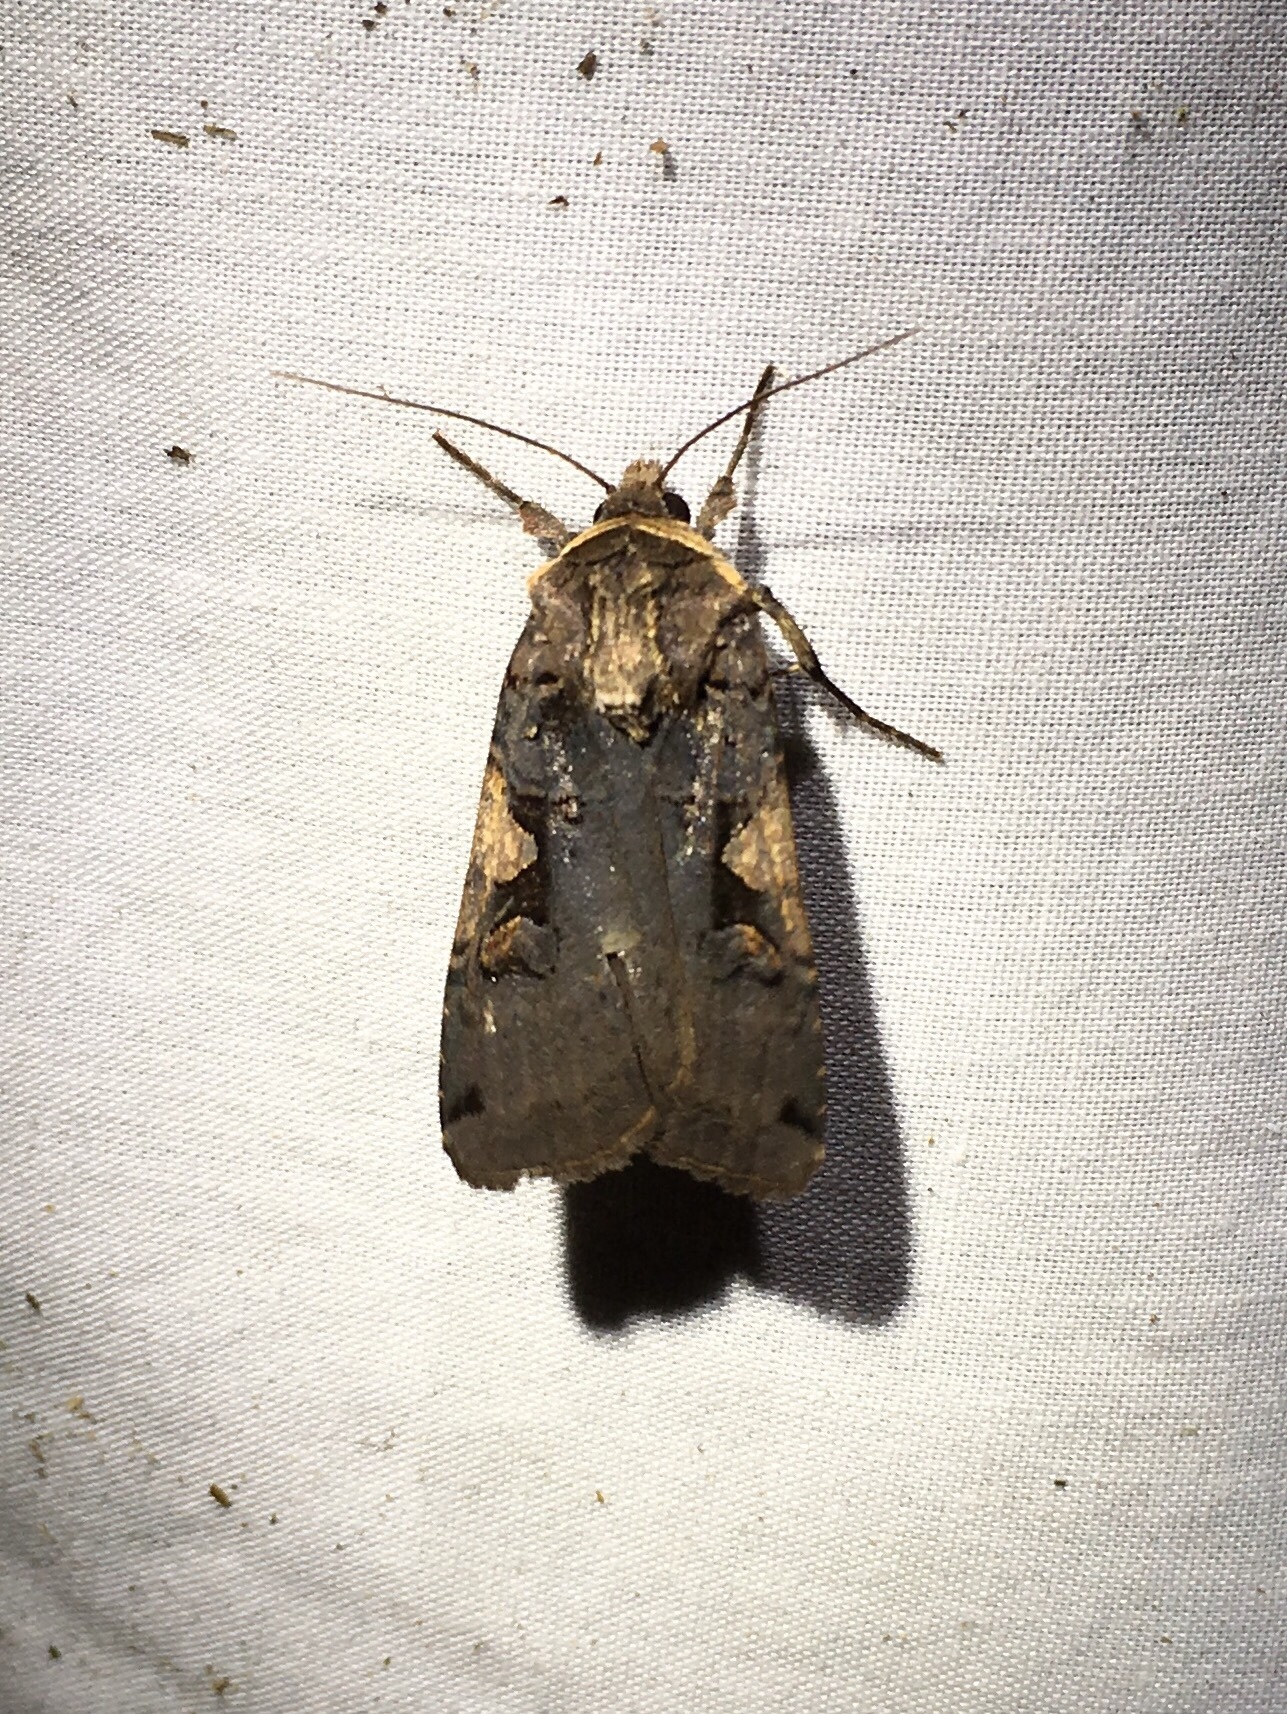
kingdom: Animalia
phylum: Arthropoda
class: Insecta
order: Lepidoptera
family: Noctuidae
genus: Xestia
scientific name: Xestia
